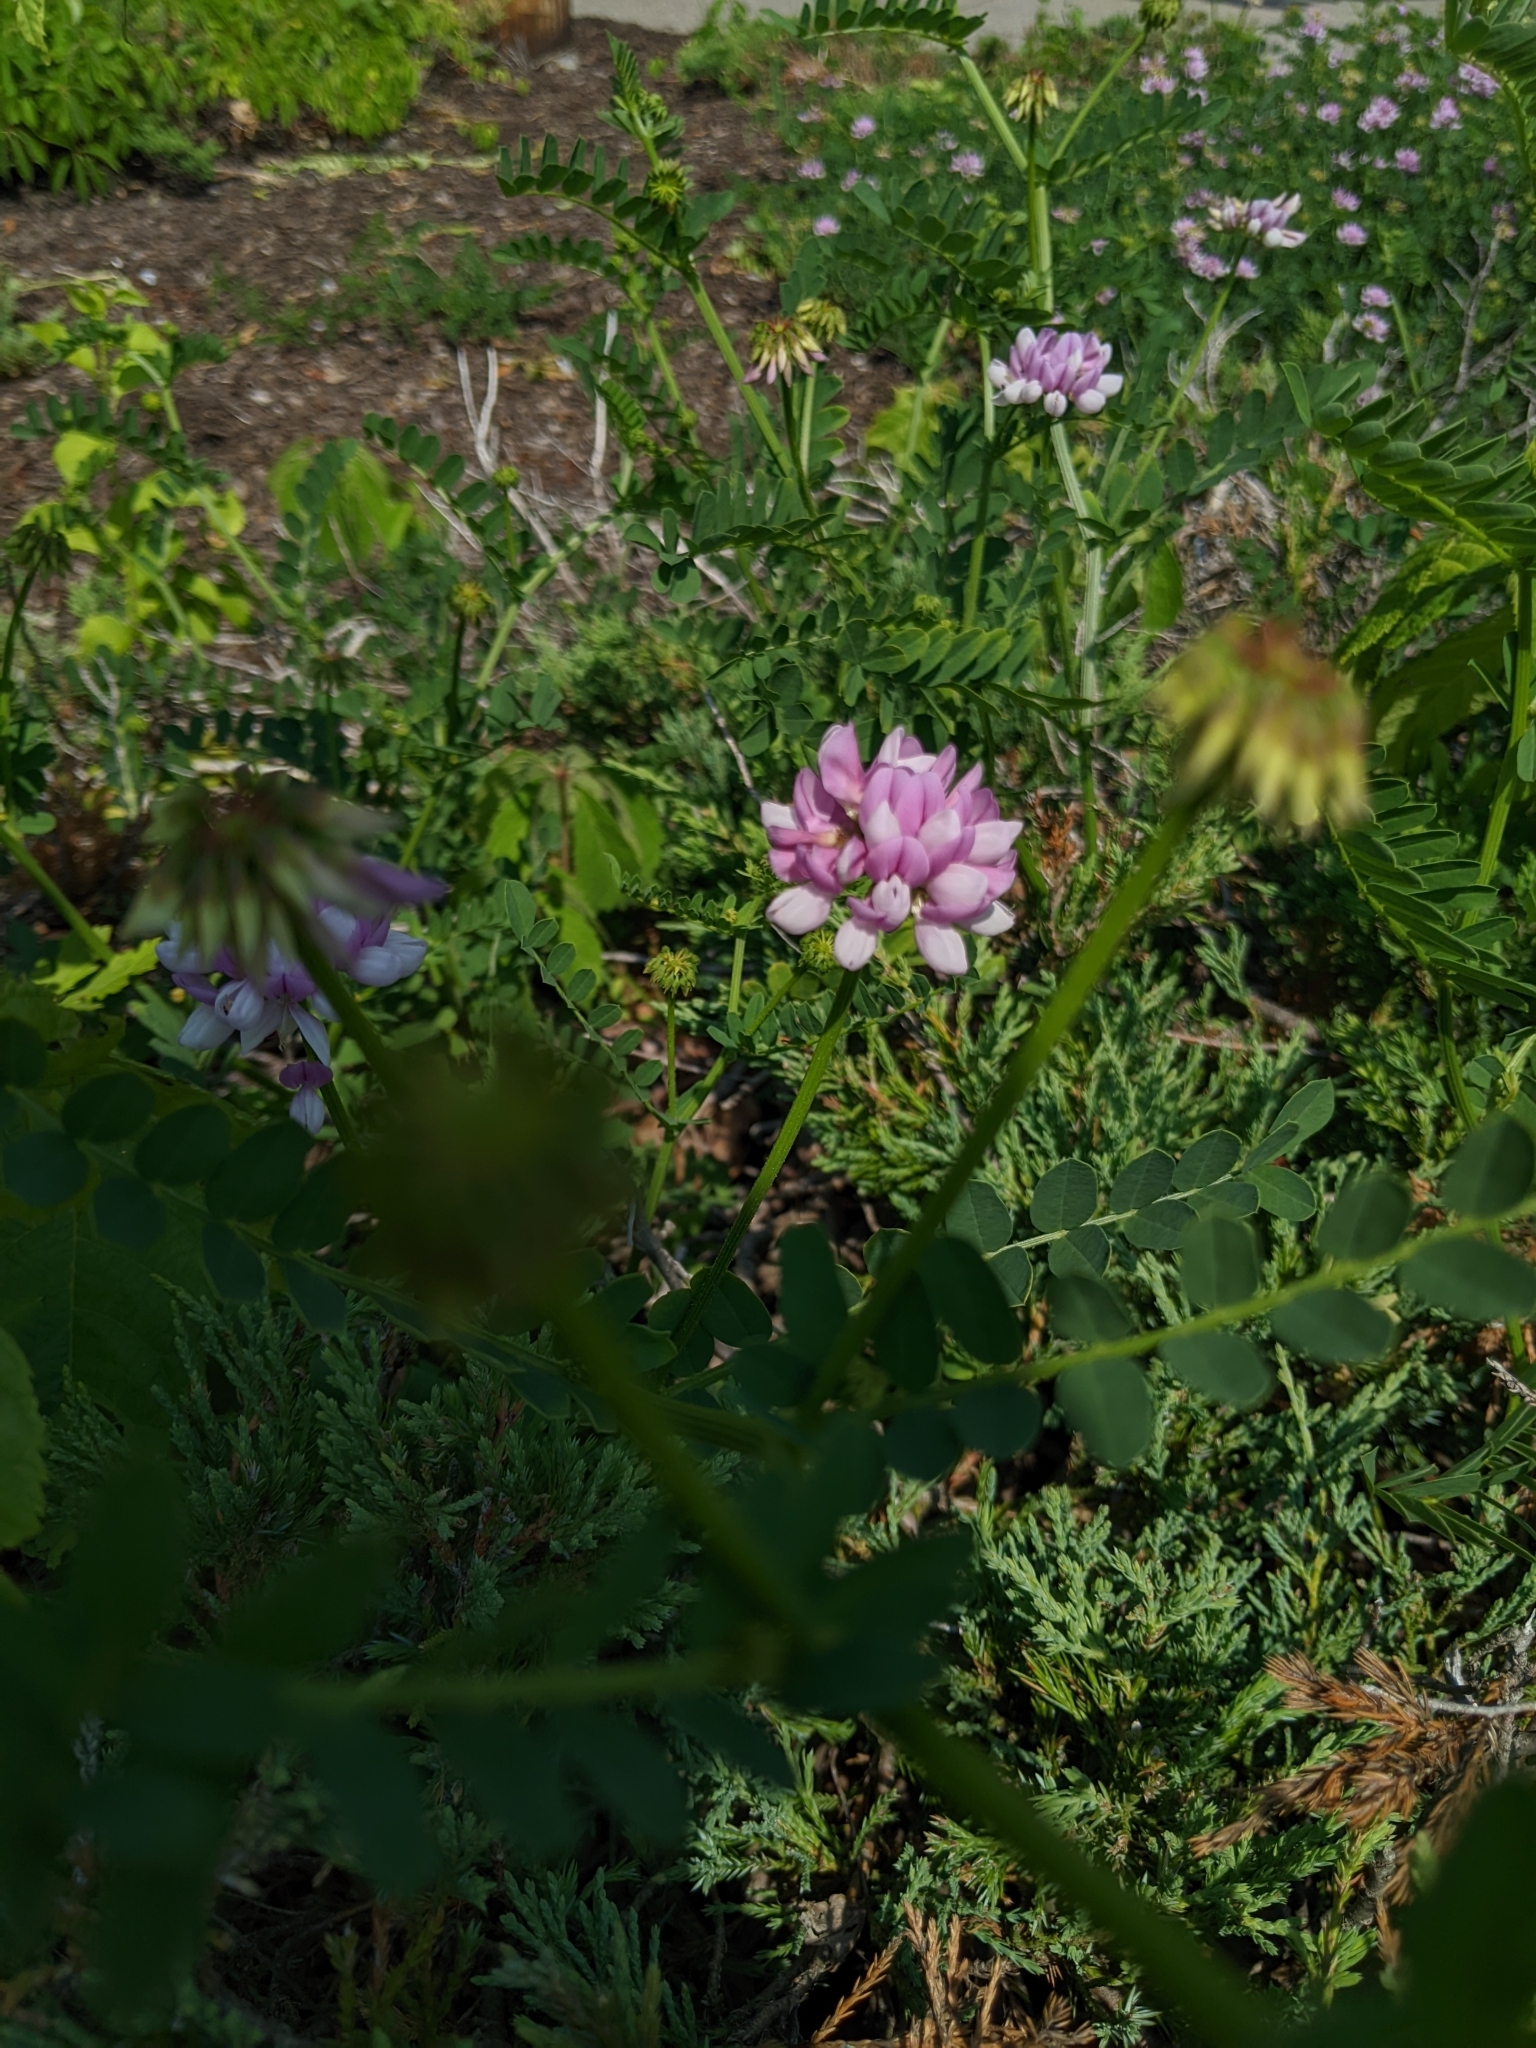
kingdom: Plantae
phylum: Tracheophyta
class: Magnoliopsida
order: Fabales
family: Fabaceae
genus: Coronilla
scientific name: Coronilla varia
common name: Crownvetch
